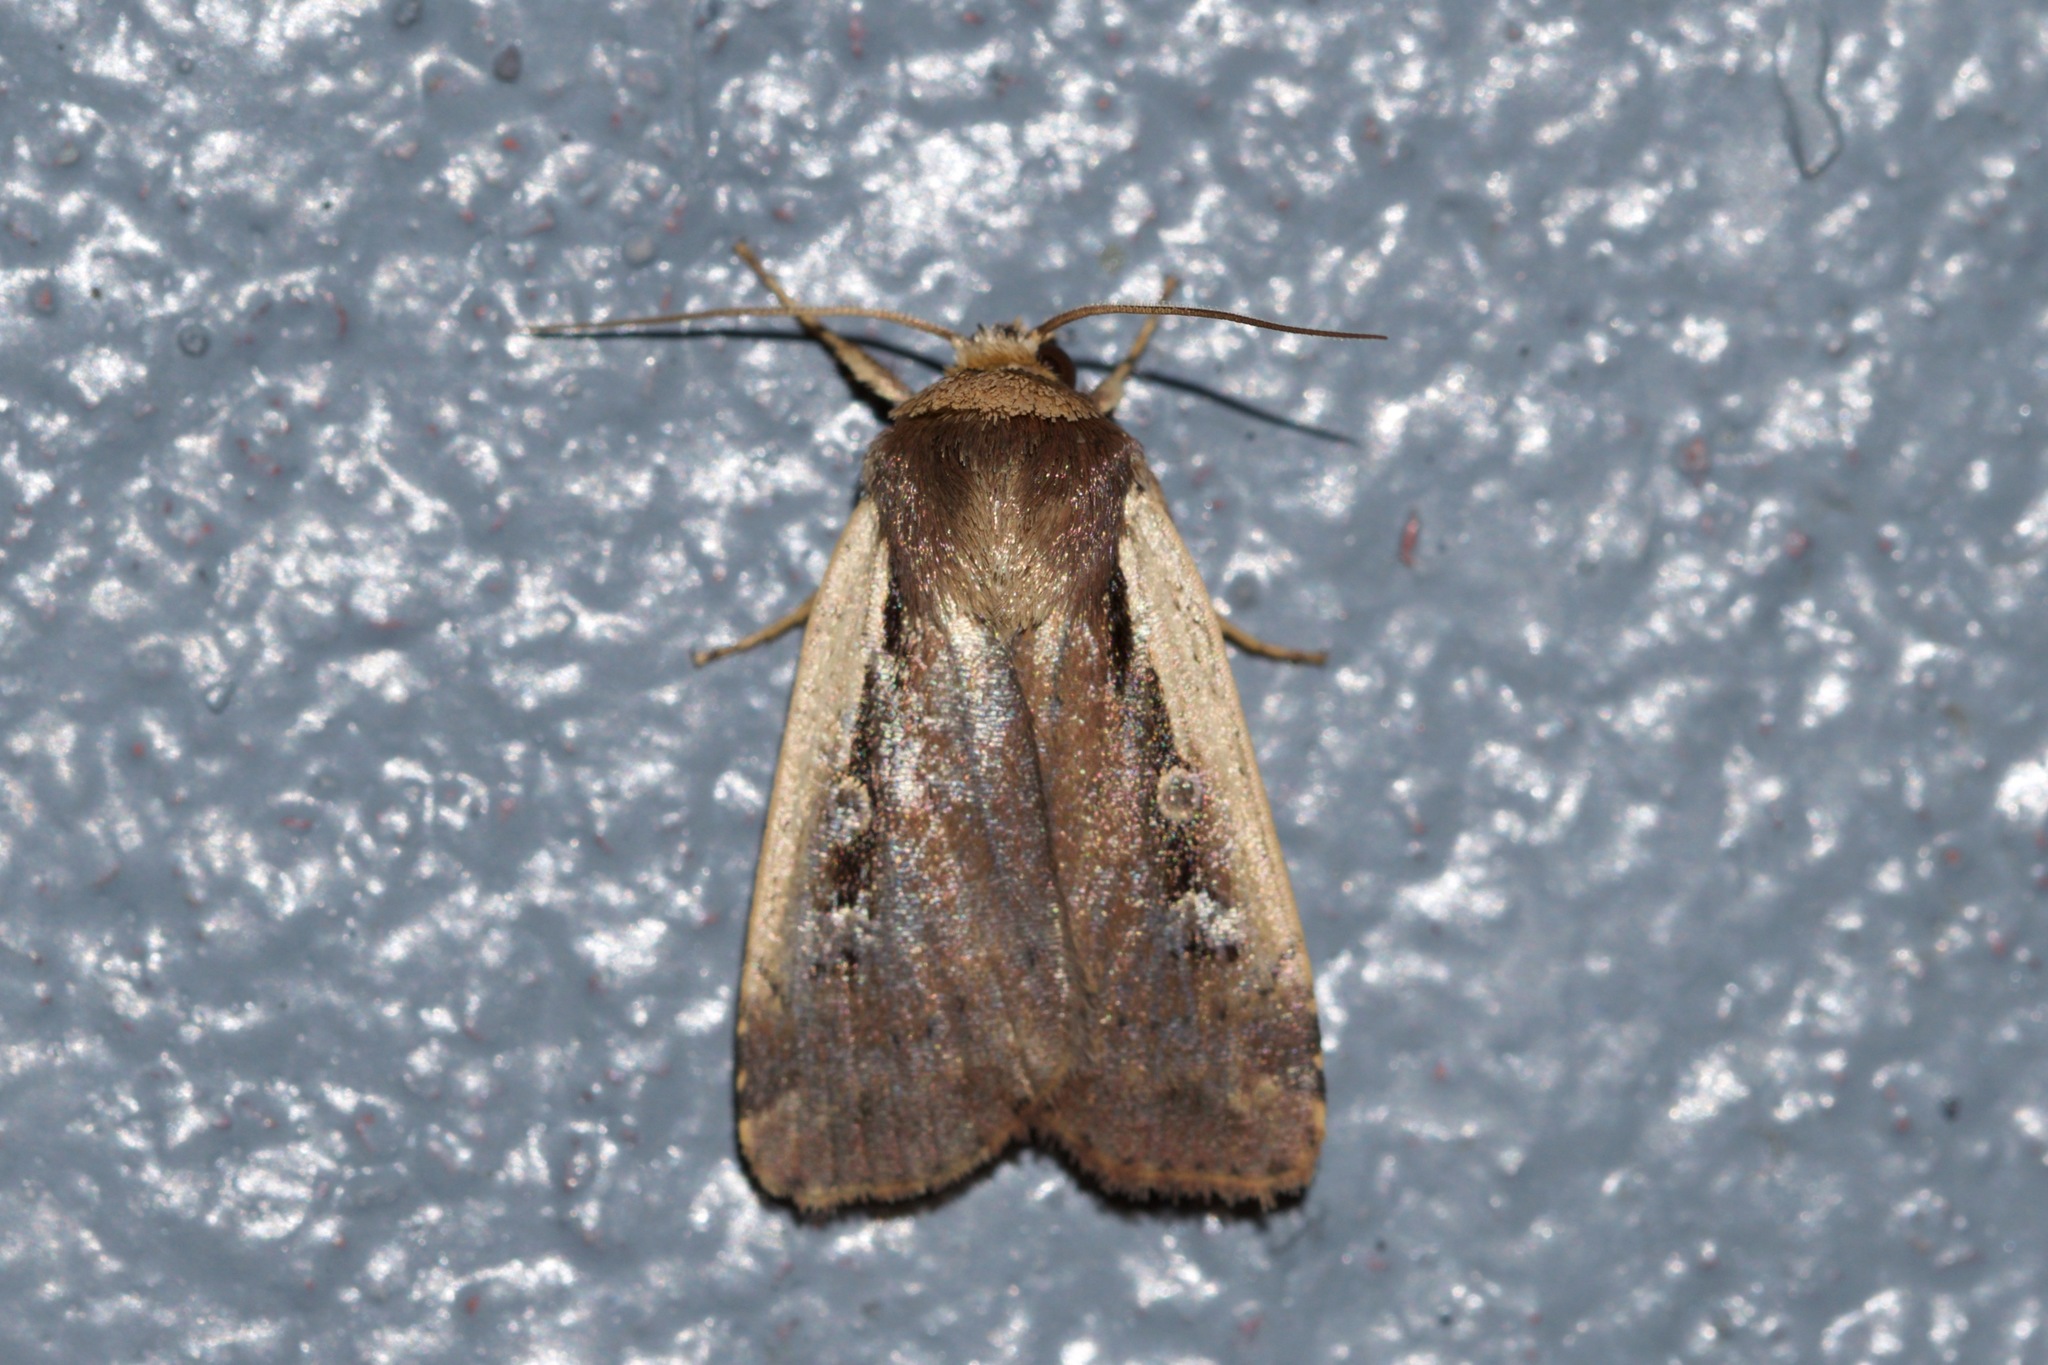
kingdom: Animalia
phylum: Arthropoda
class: Insecta
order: Lepidoptera
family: Noctuidae
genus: Ochropleura
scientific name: Ochropleura implecta
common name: Flame-shouldered dart
